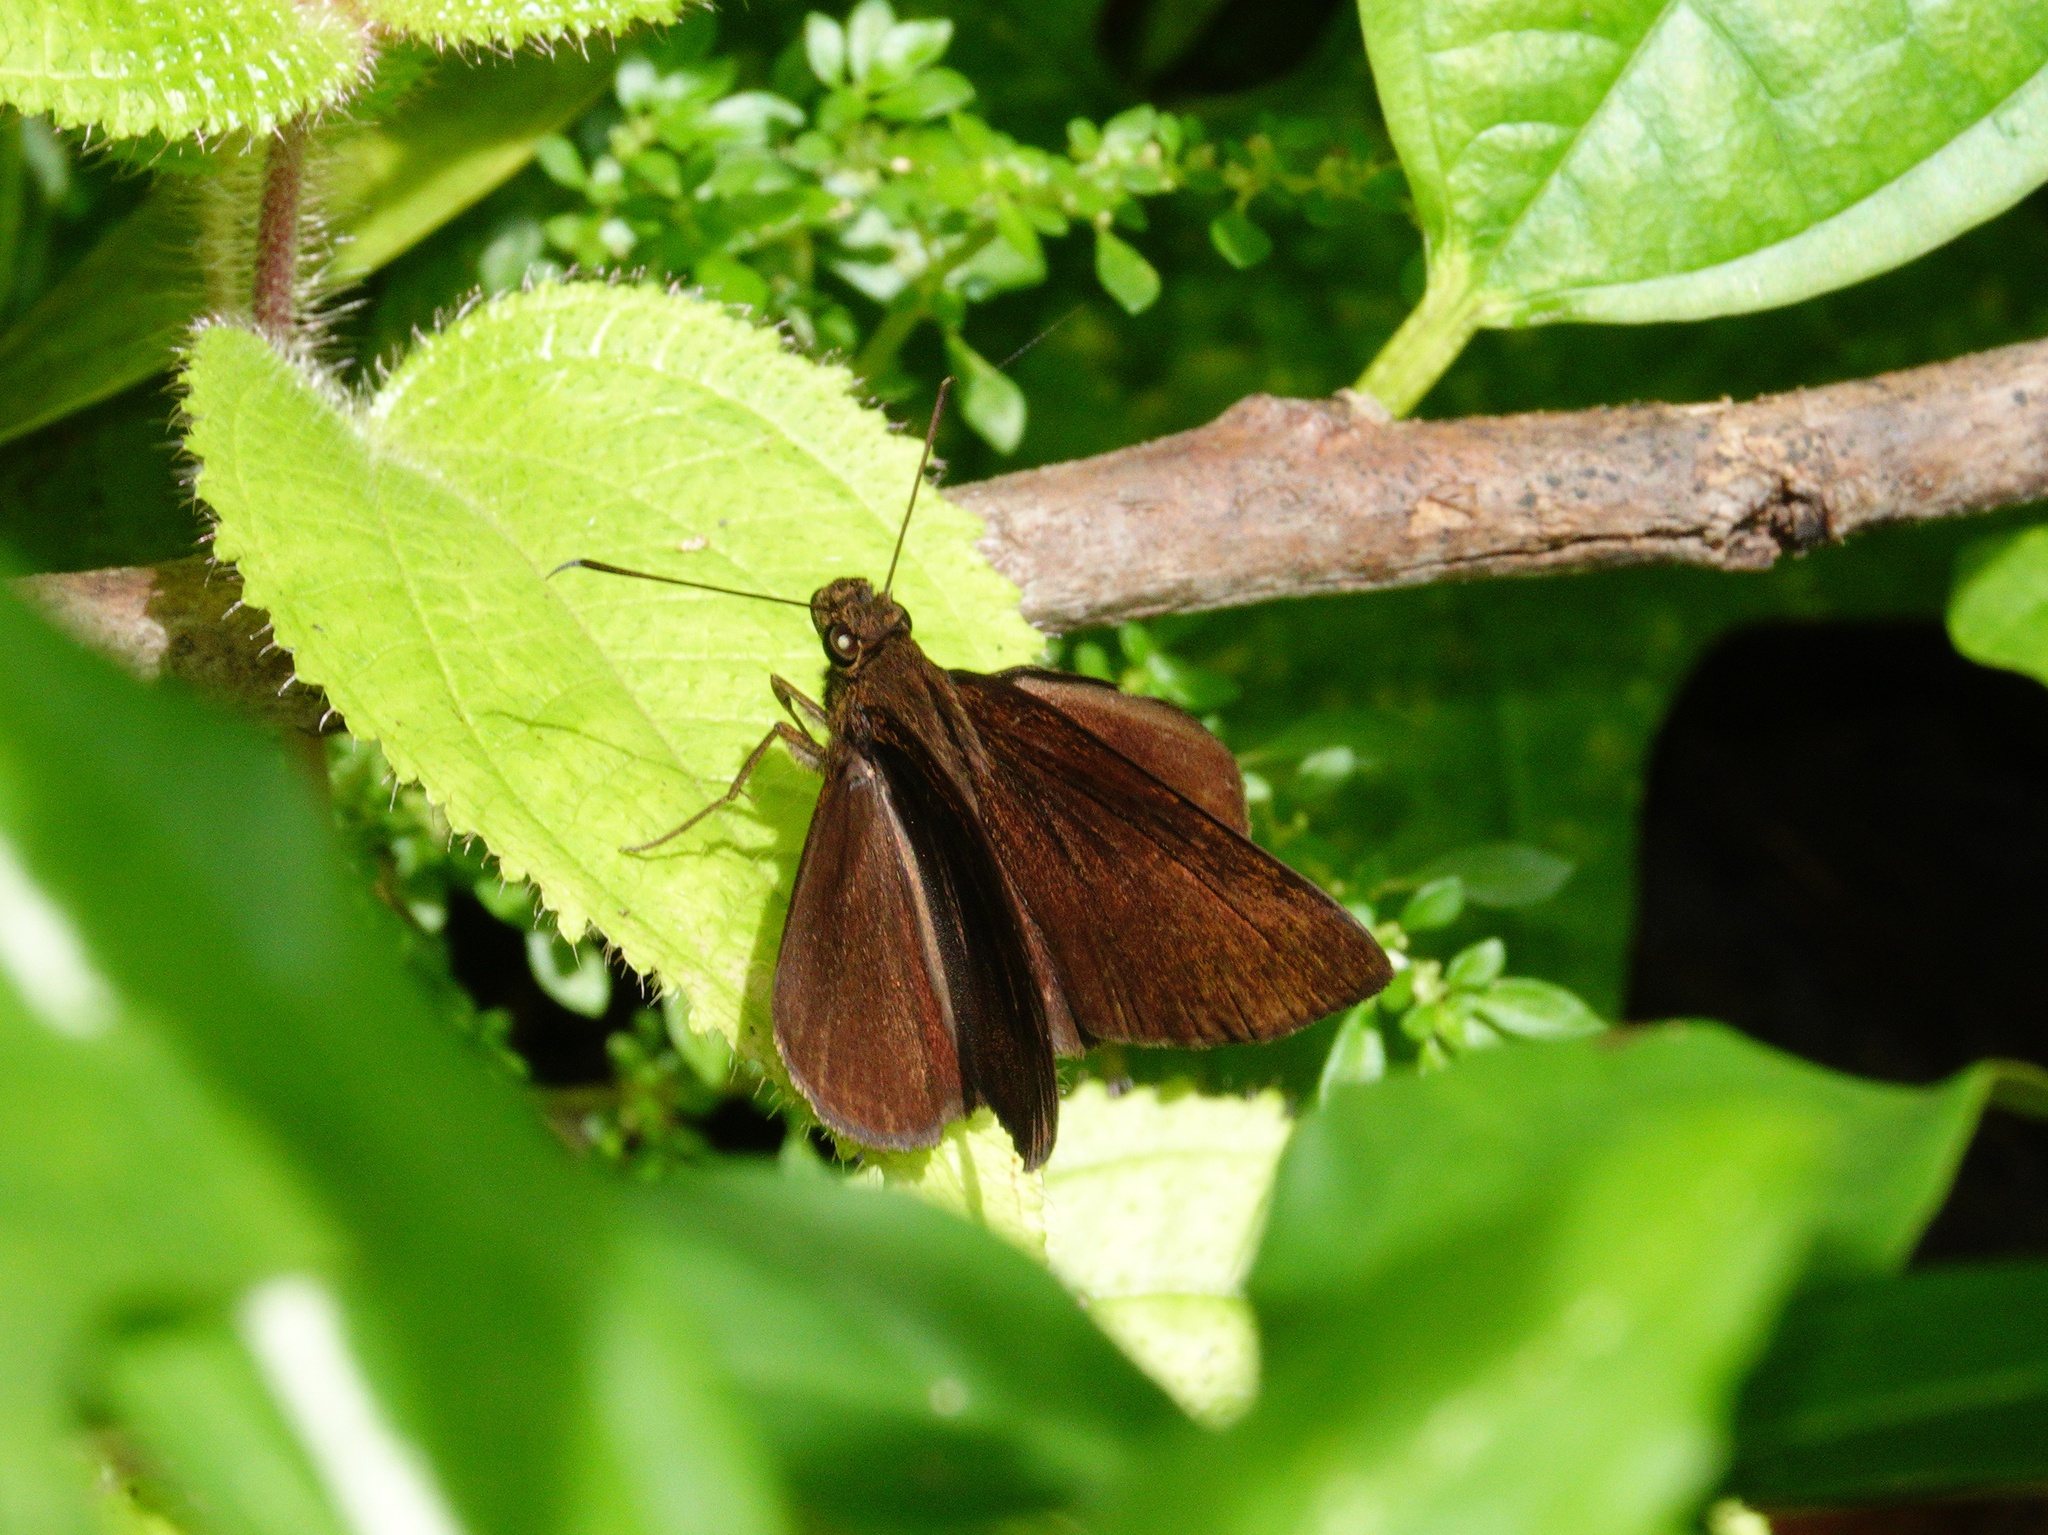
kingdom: Animalia
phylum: Arthropoda
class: Insecta
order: Lepidoptera
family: Hesperiidae
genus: Ancistroides
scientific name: Ancistroides nigrita
